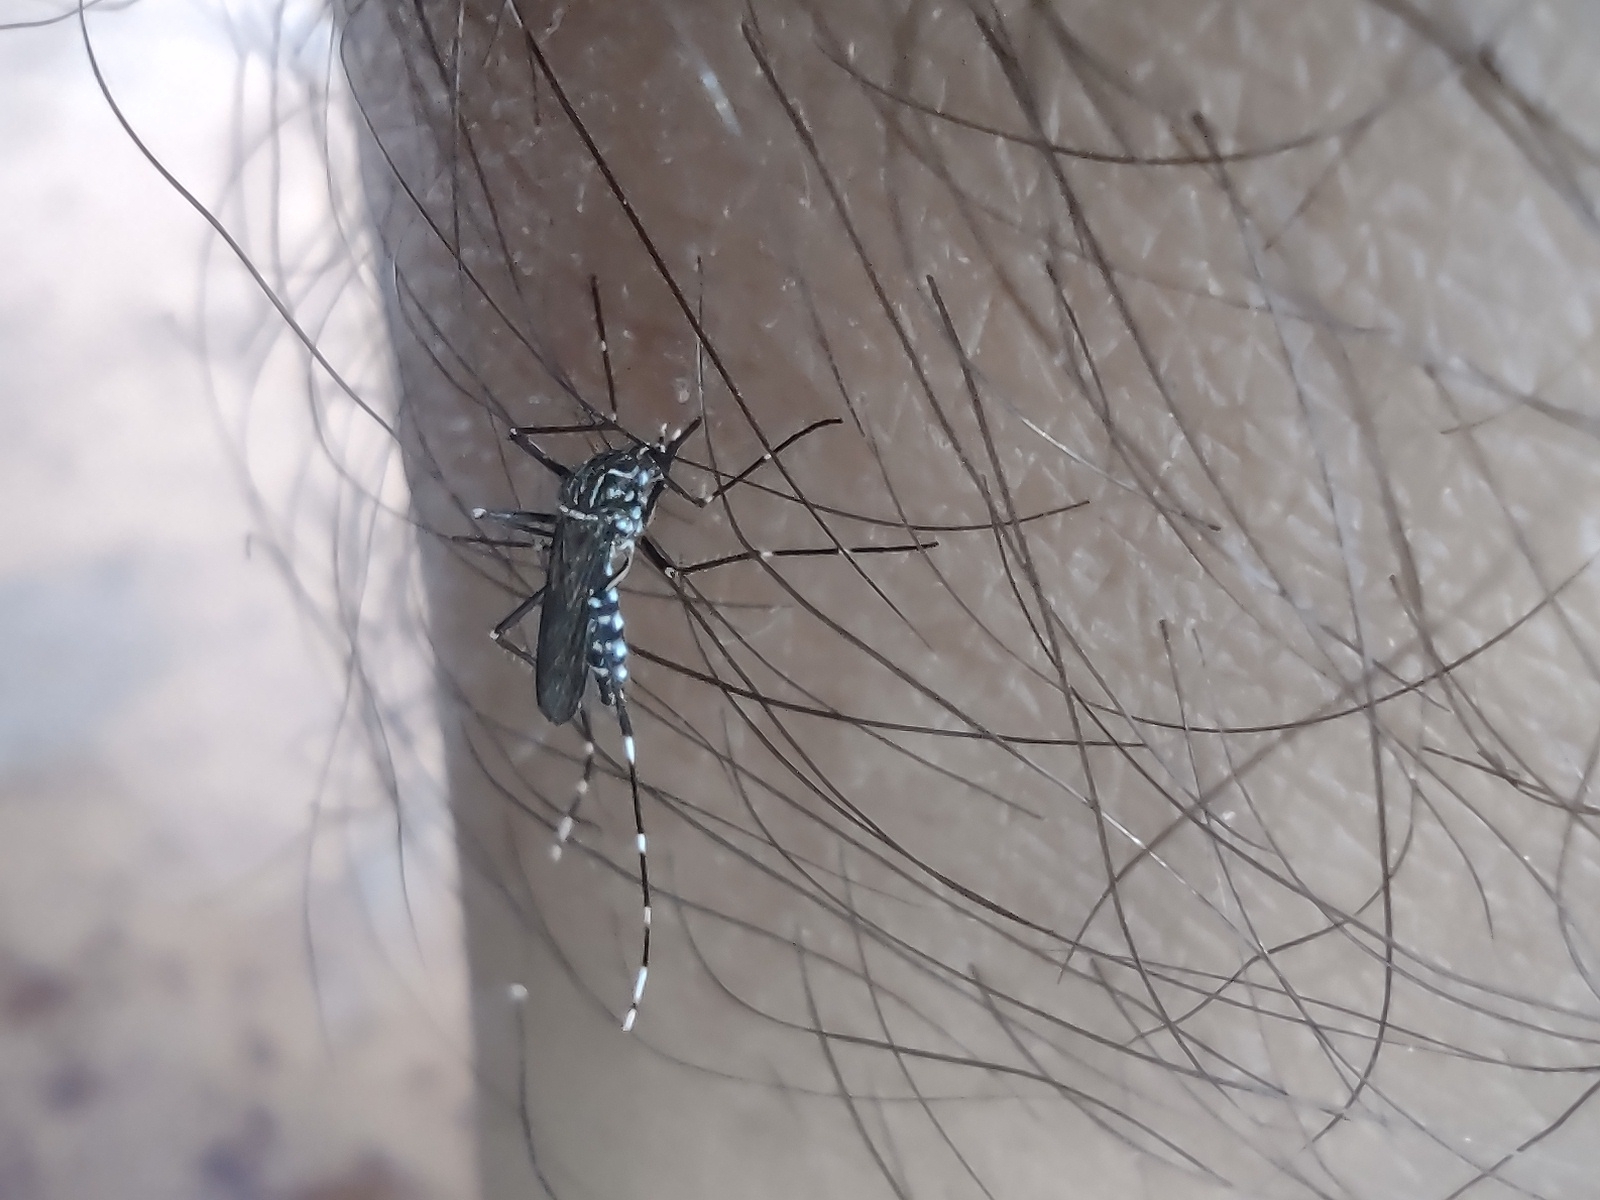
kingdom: Animalia
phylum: Arthropoda
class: Insecta
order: Diptera
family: Culicidae
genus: Aedes
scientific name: Aedes aegypti
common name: Yellow fever mosquito
